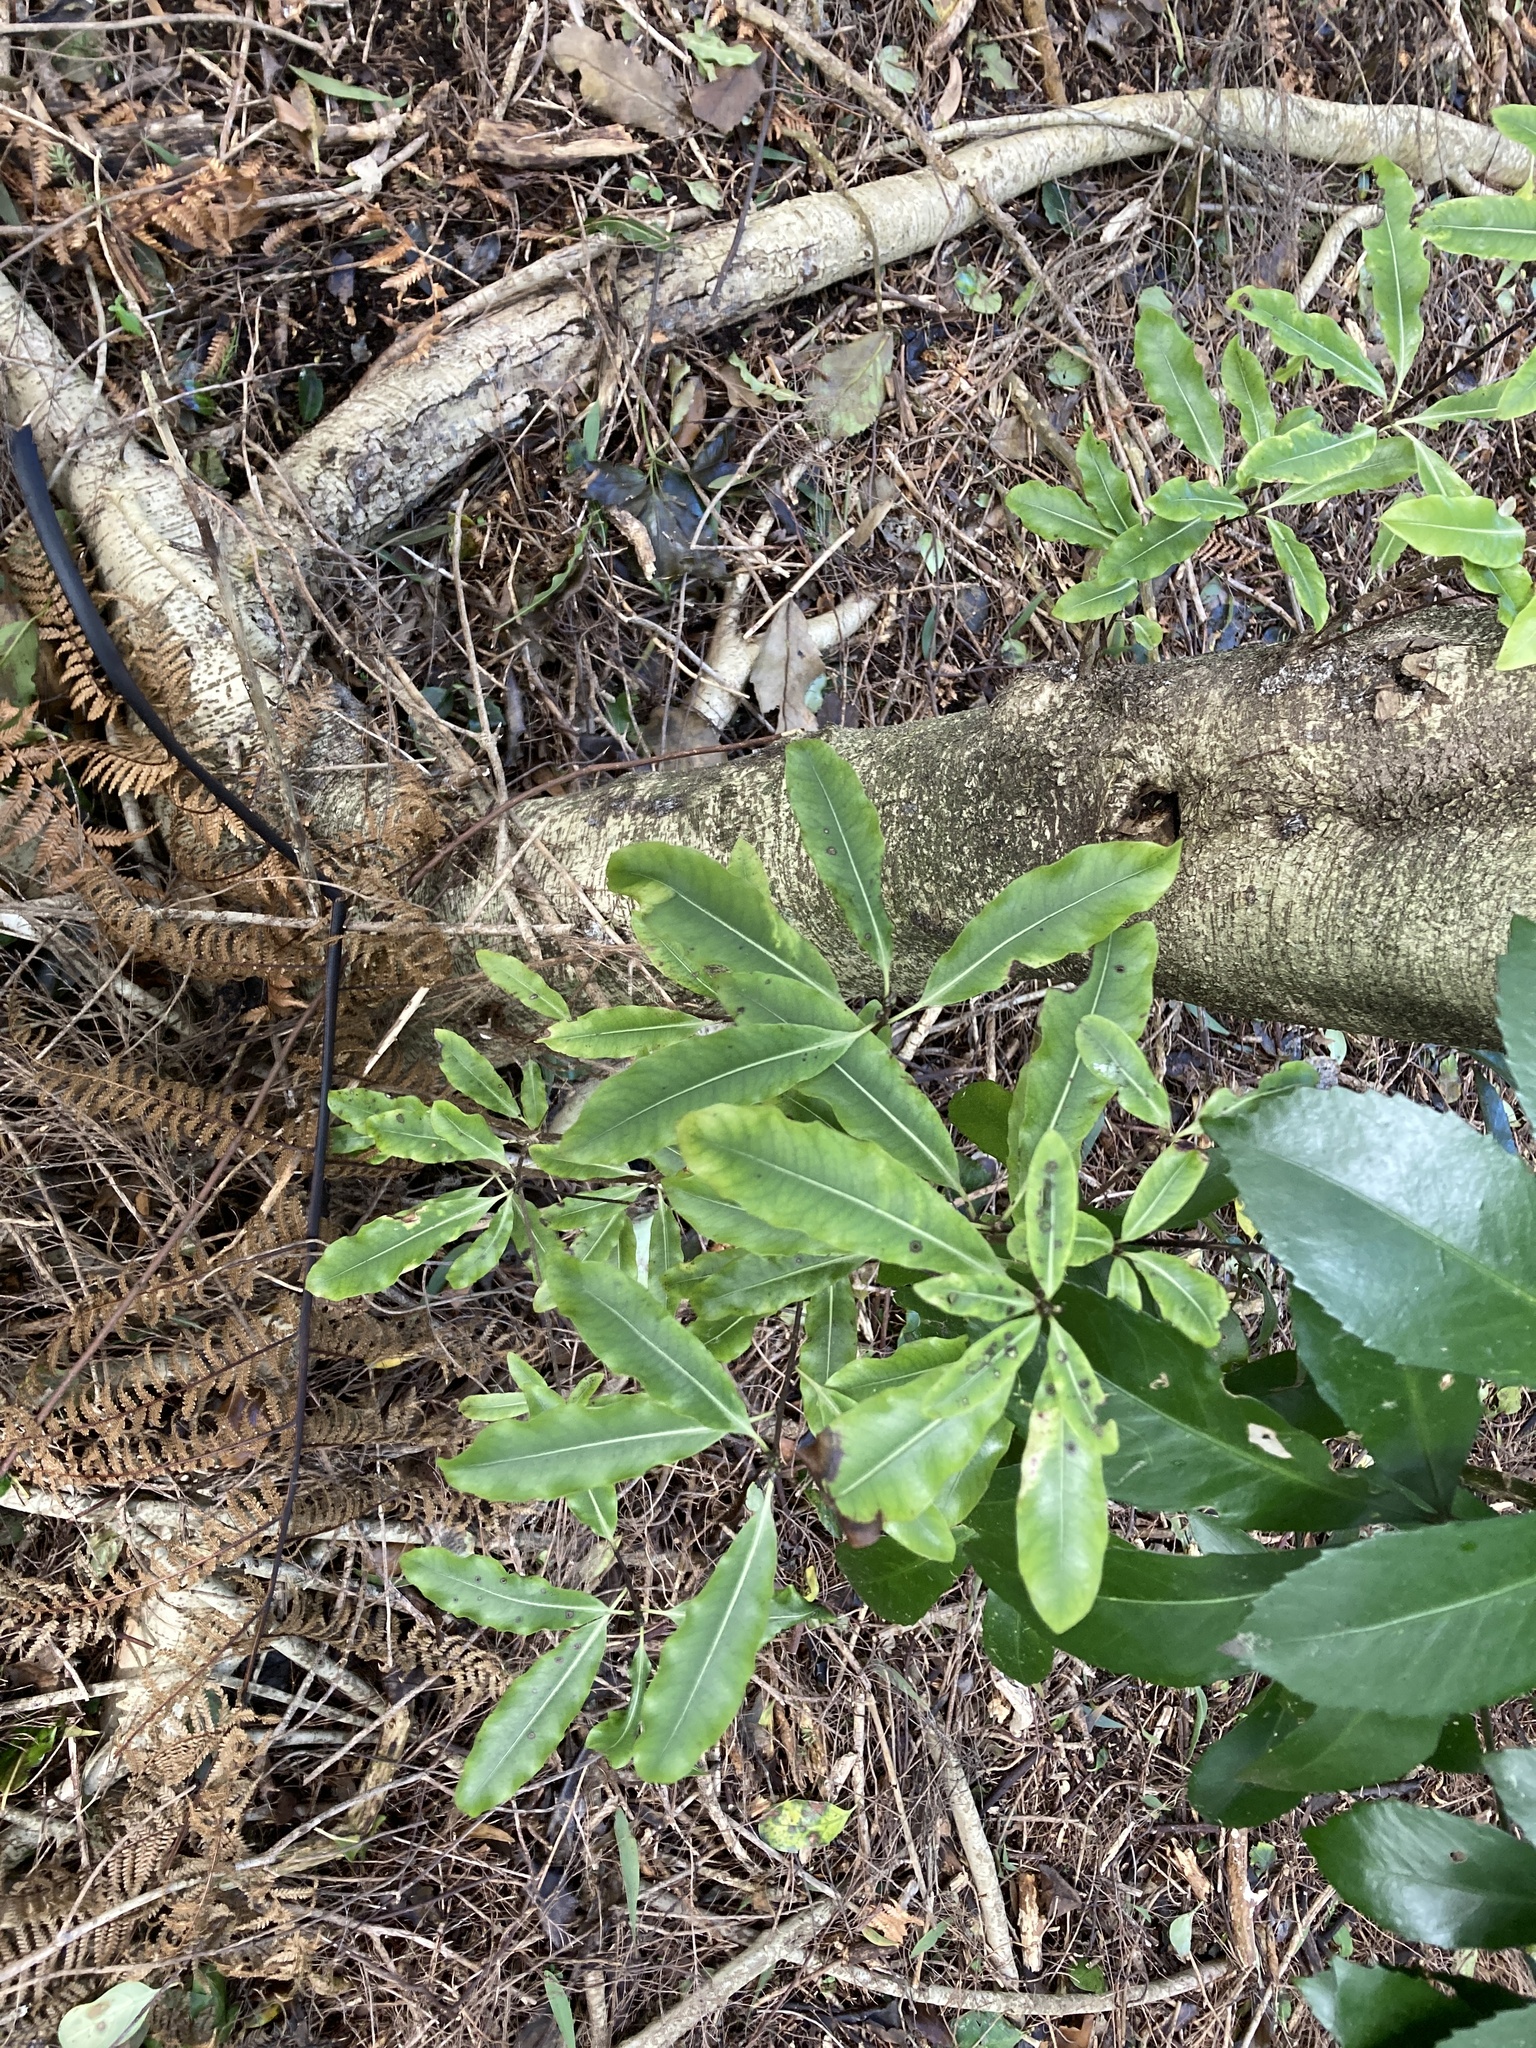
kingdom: Plantae
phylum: Tracheophyta
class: Magnoliopsida
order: Apiales
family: Pittosporaceae
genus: Pittosporum
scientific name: Pittosporum eugenioides
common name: Lemonwood
